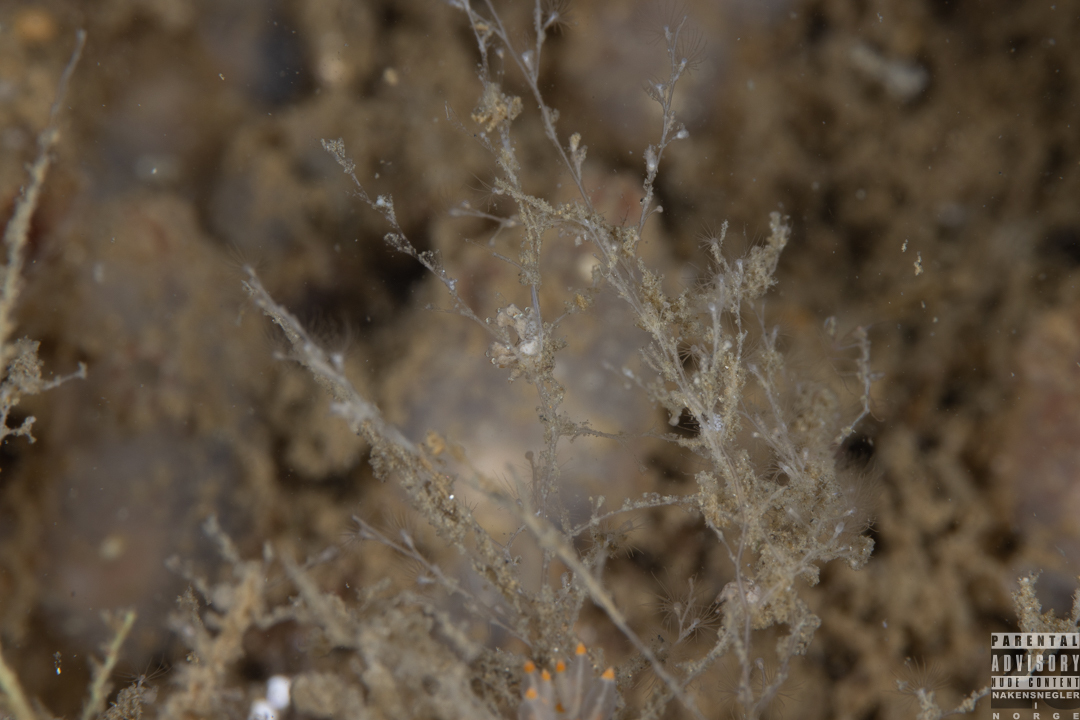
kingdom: Animalia
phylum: Mollusca
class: Gastropoda
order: Nudibranchia
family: Eubranchidae
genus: Eubranchus
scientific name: Eubranchus scintillans
